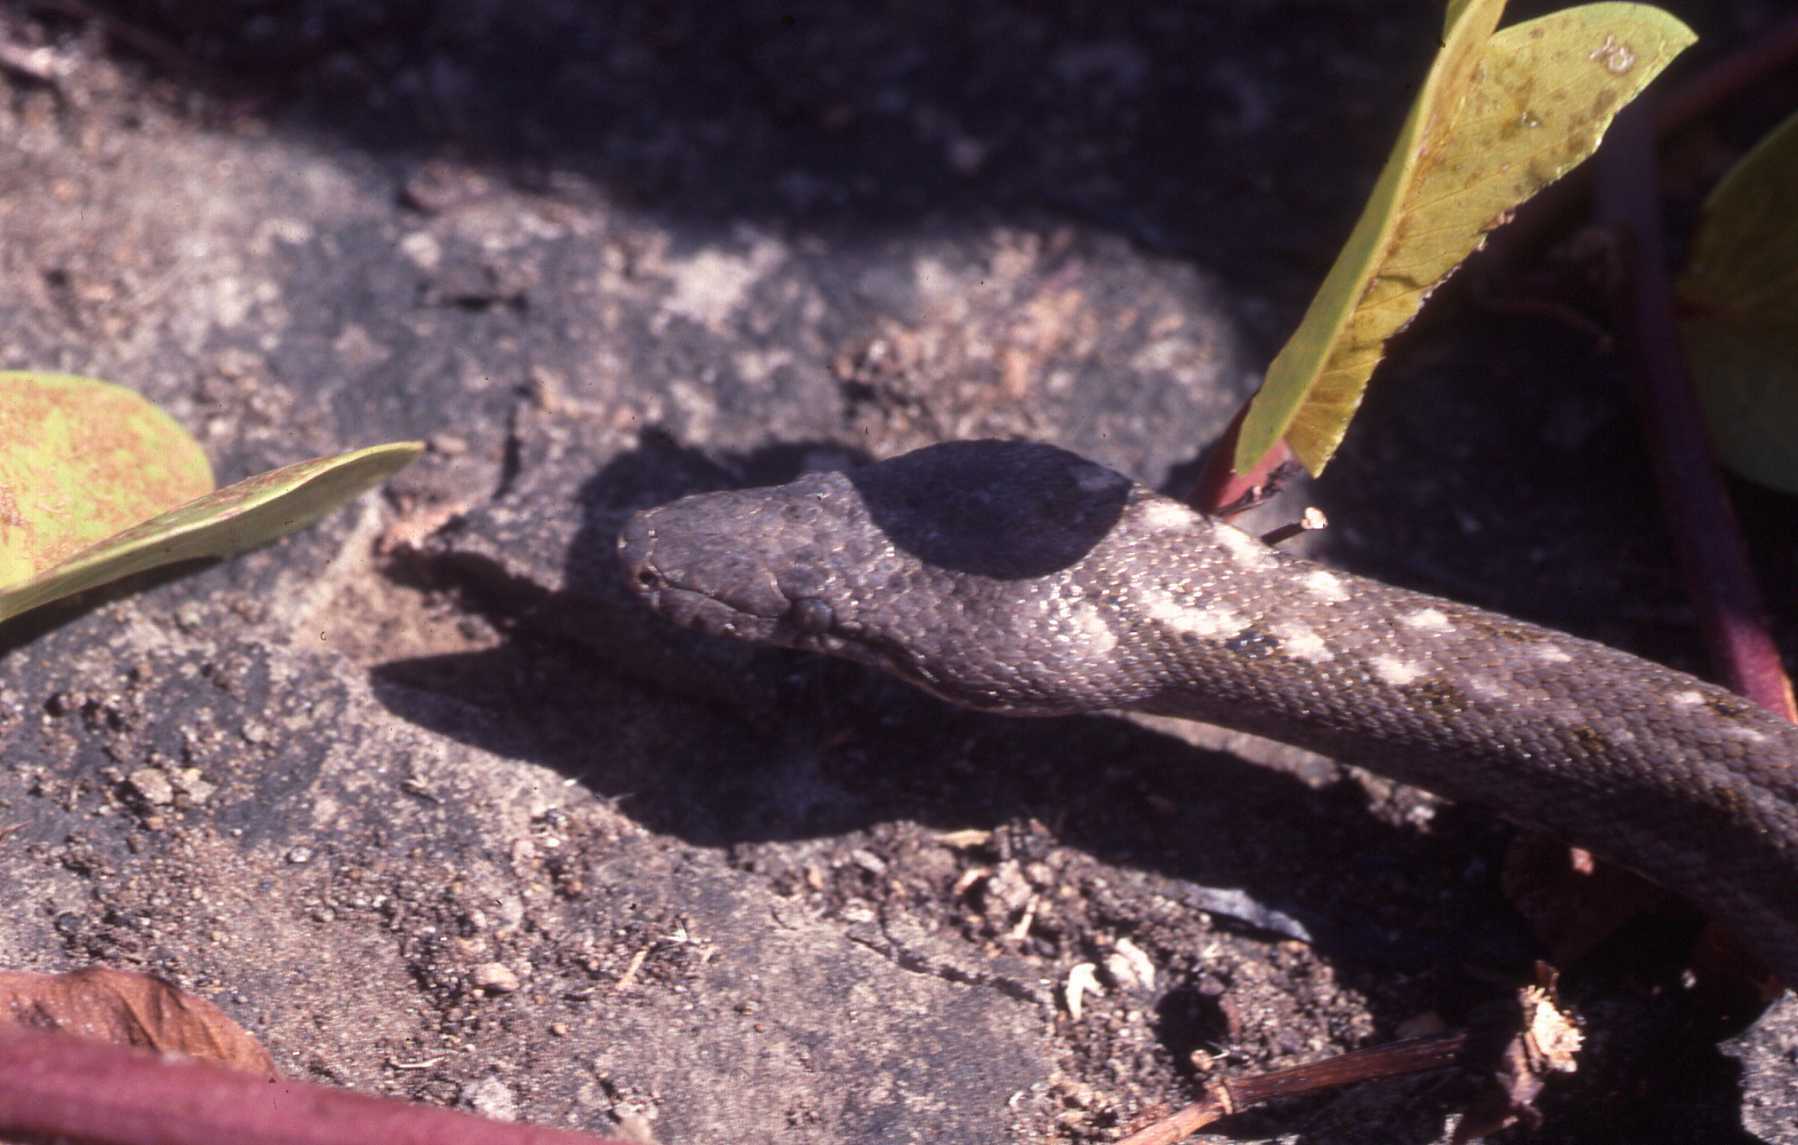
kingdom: Animalia
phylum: Chordata
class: Squamata
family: Bolyeriidae
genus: Casarea
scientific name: Casarea dussumieri
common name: Keel-scaled boa
